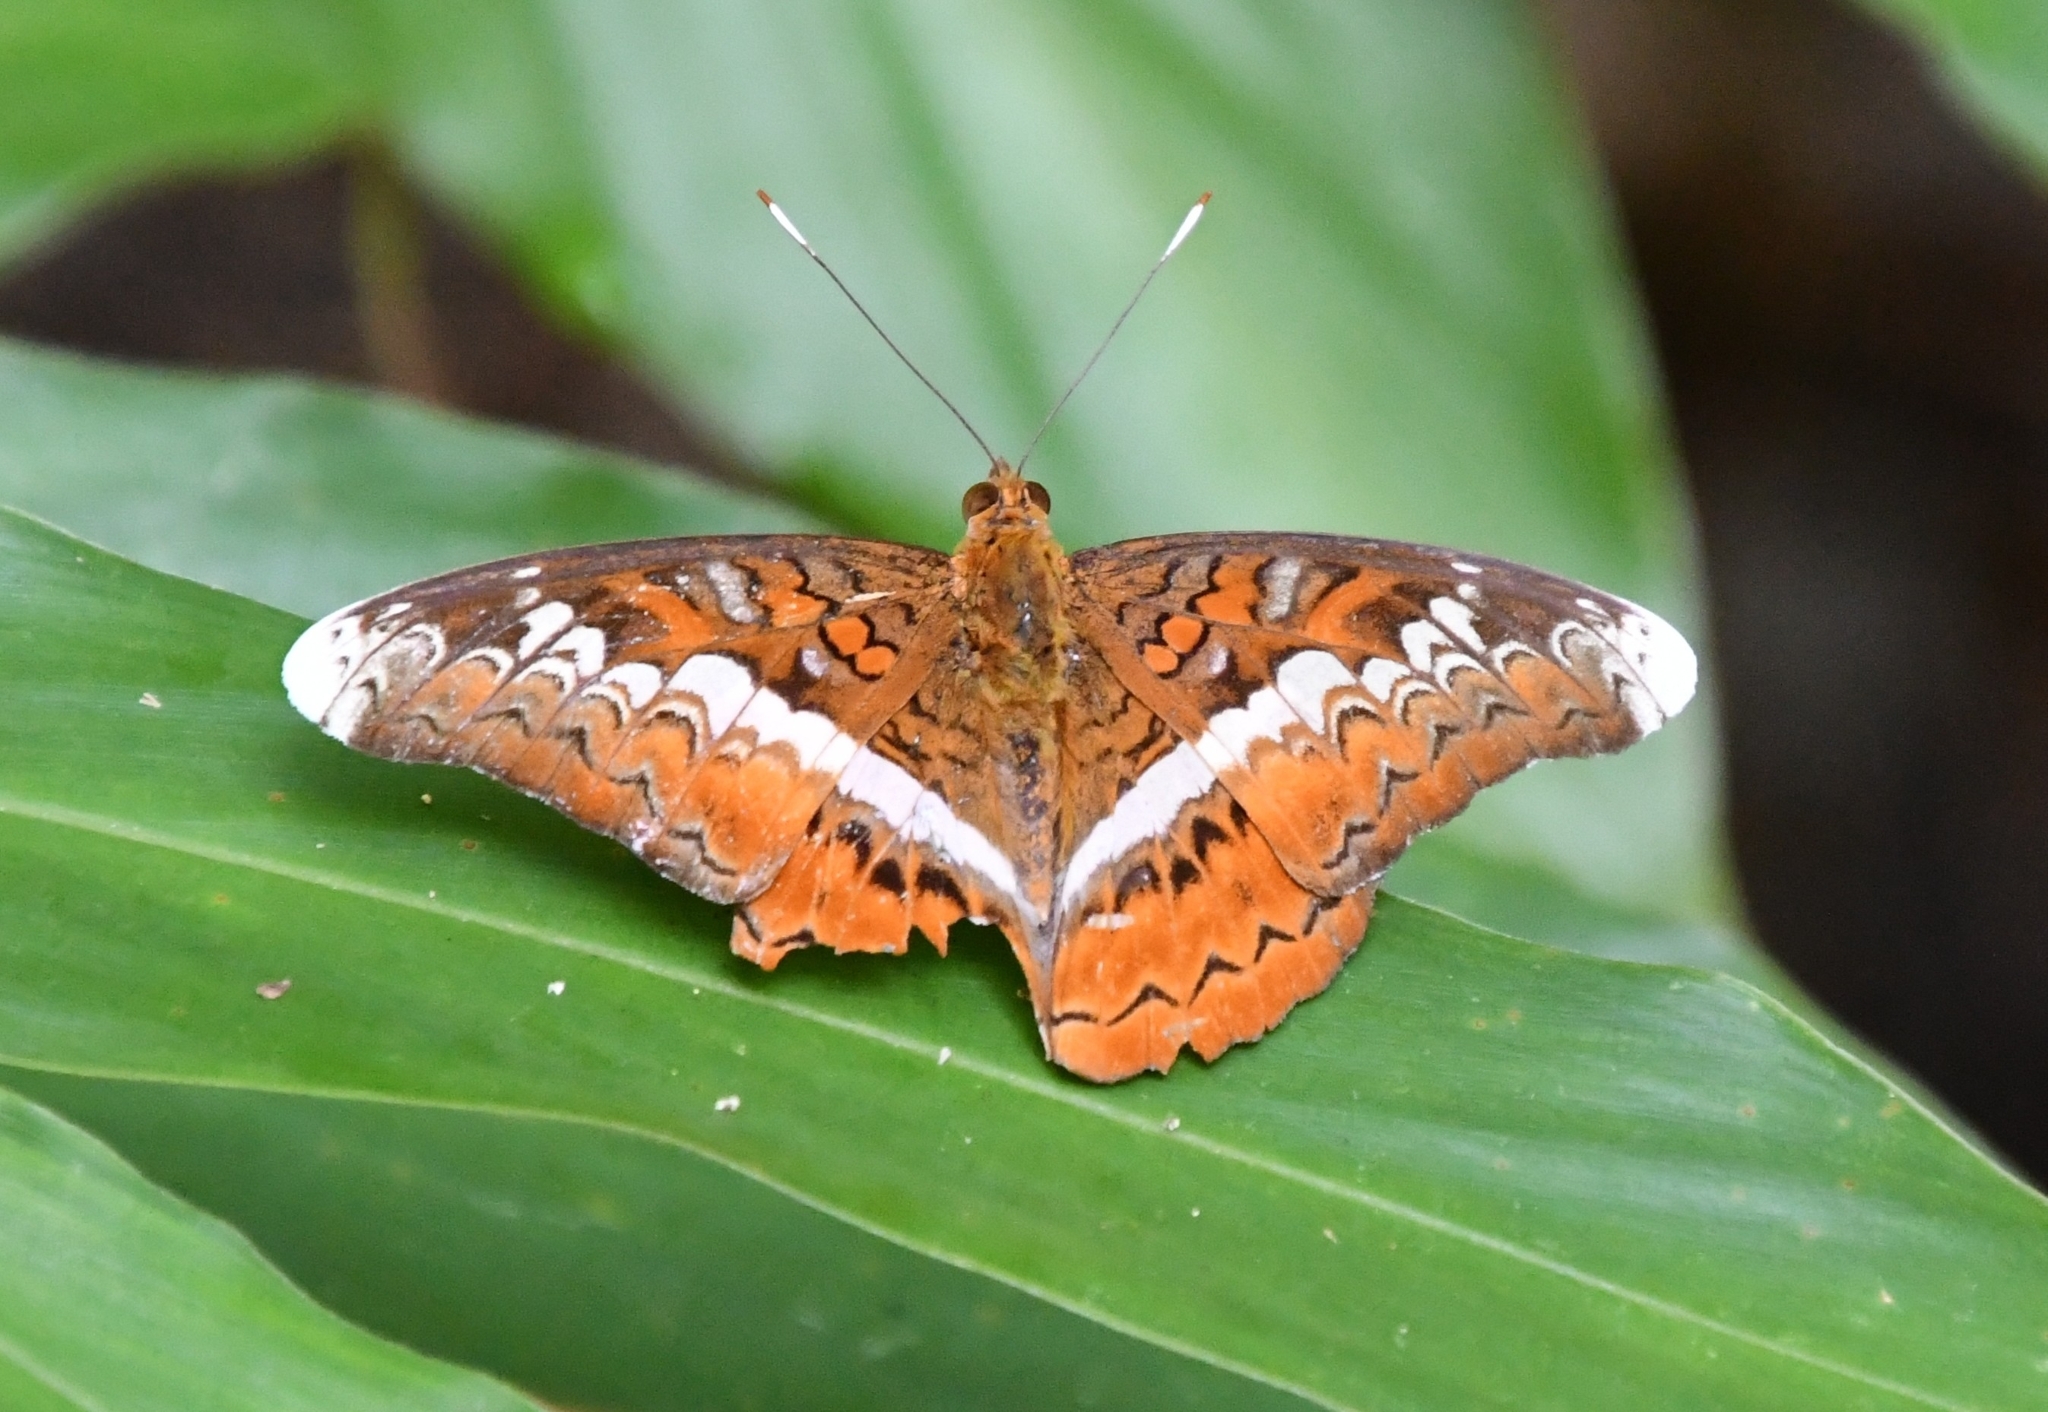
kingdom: Animalia
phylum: Arthropoda
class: Insecta
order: Lepidoptera
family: Nymphalidae
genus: Lebadea
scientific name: Lebadea martha
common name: Knight
